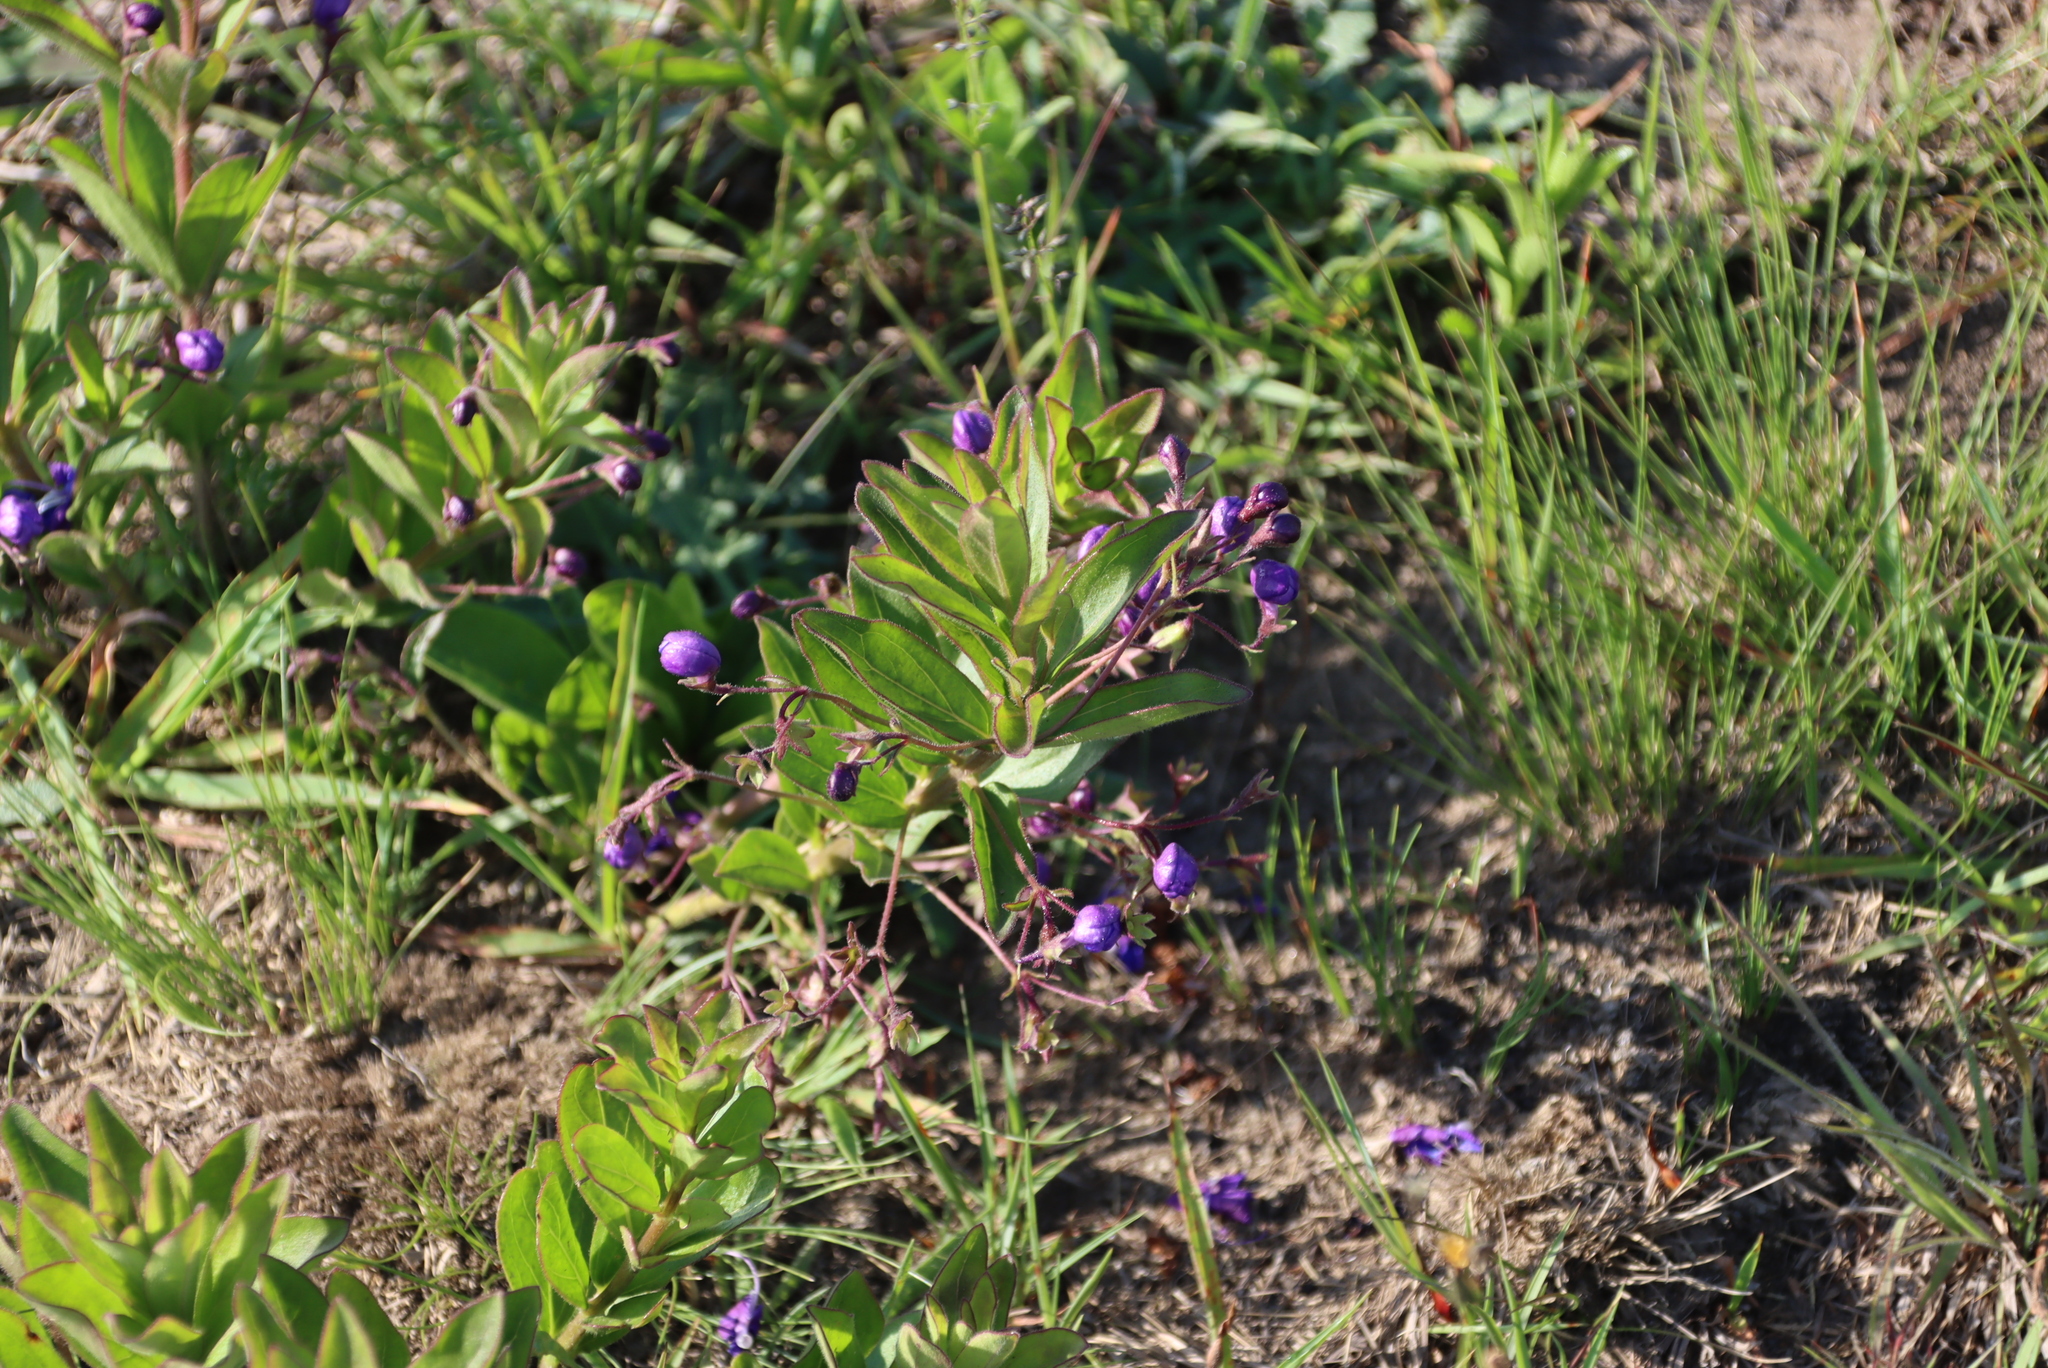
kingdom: Plantae
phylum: Tracheophyta
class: Magnoliopsida
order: Lamiales
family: Lamiaceae
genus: Rotheca
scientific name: Rotheca hirsuta
